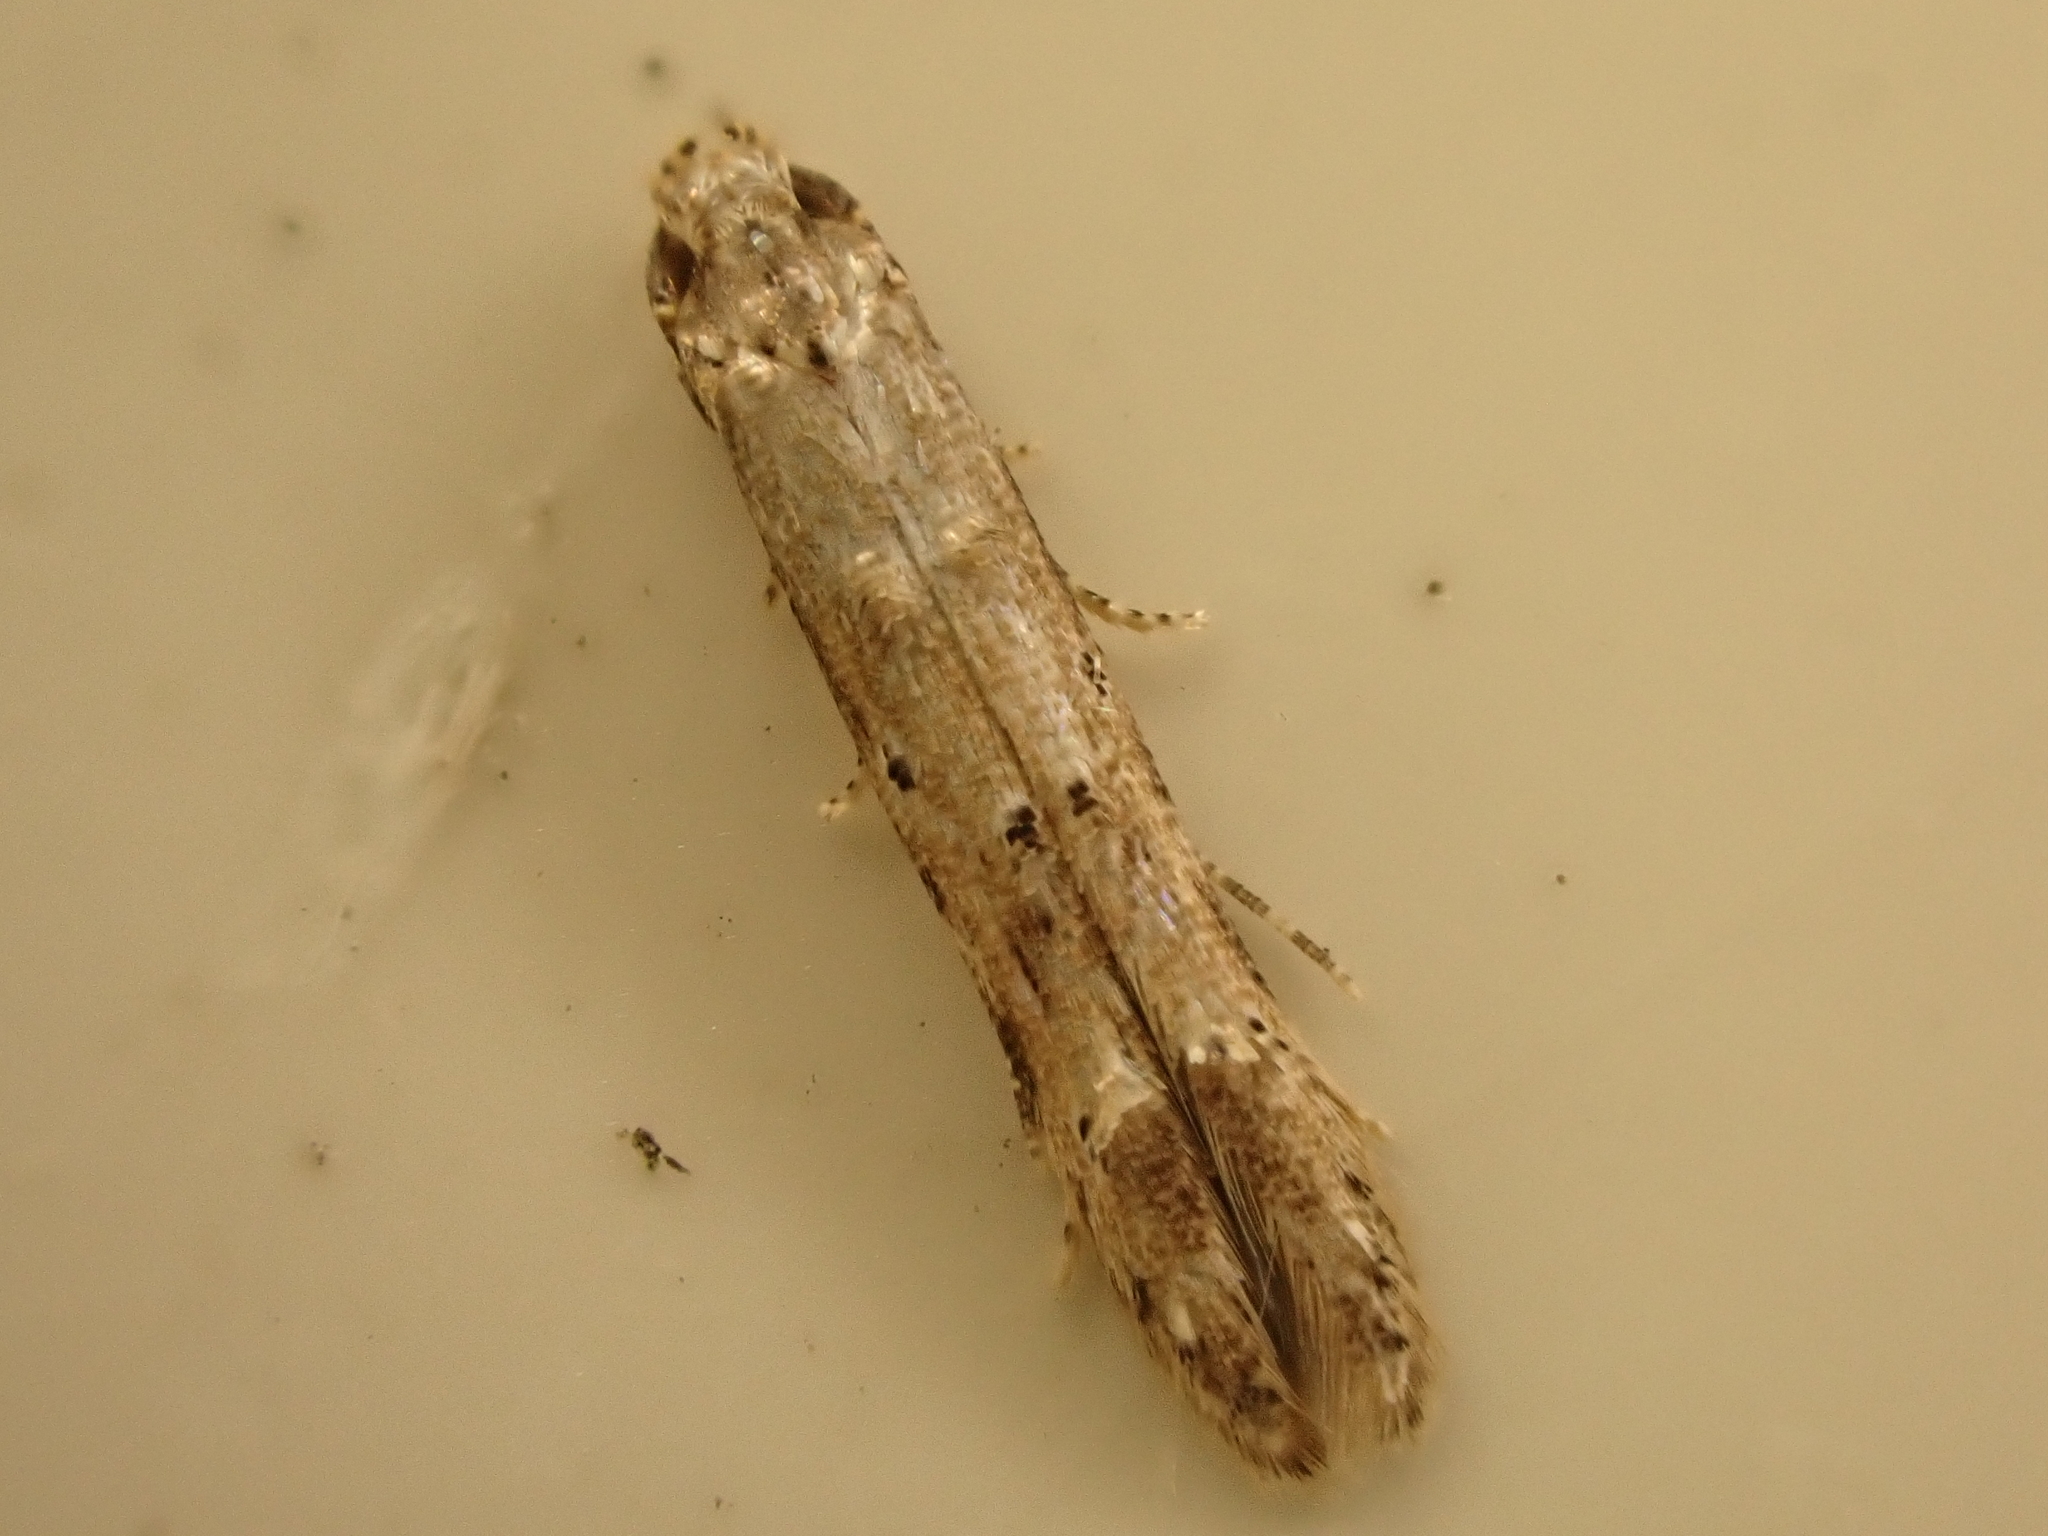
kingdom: Animalia
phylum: Arthropoda
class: Insecta
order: Lepidoptera
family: Elachistidae
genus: Microcolona
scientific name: Microcolona limodes
